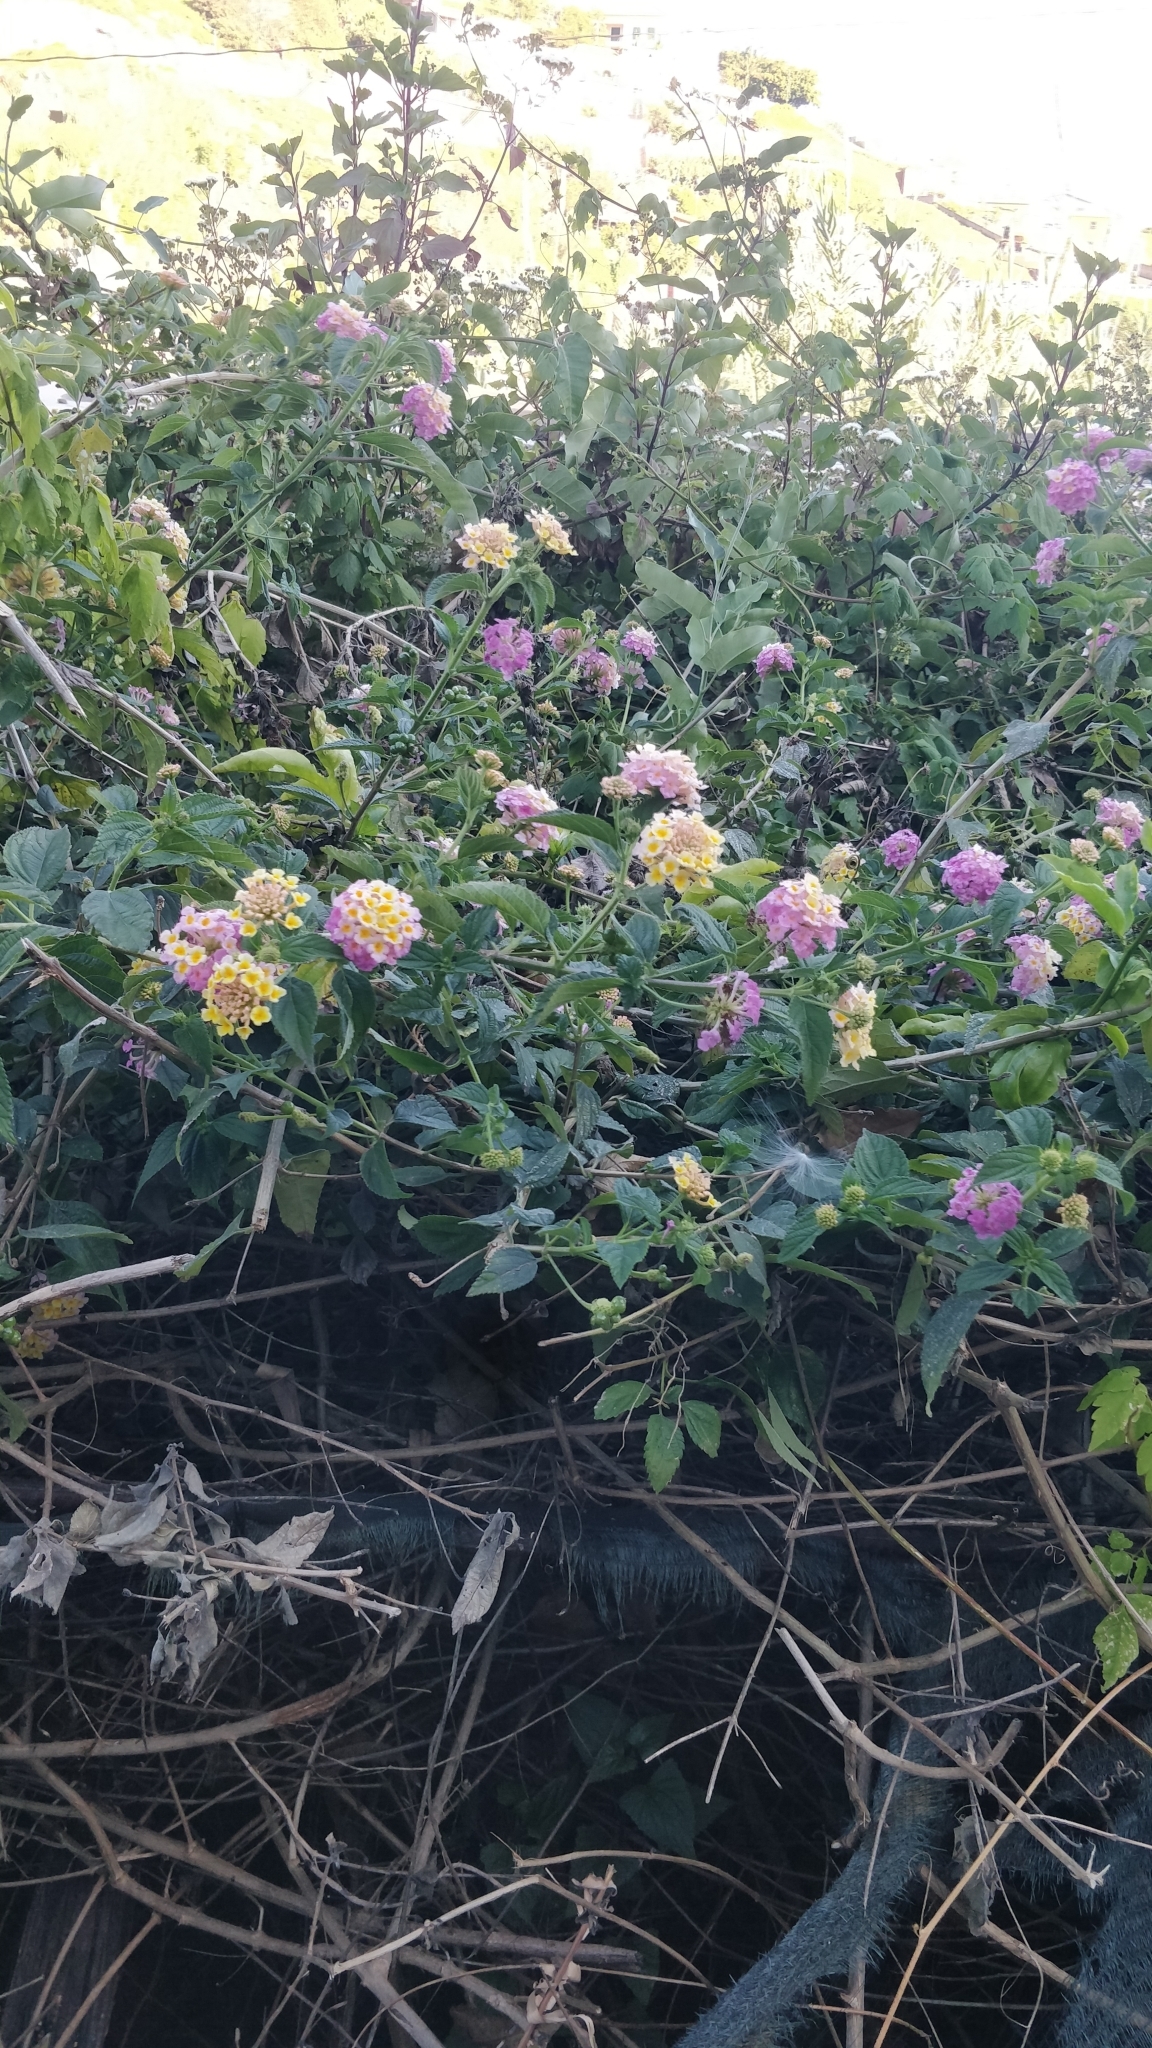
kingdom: Plantae
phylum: Tracheophyta
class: Magnoliopsida
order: Lamiales
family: Verbenaceae
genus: Lantana
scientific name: Lantana camara
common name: Lantana
